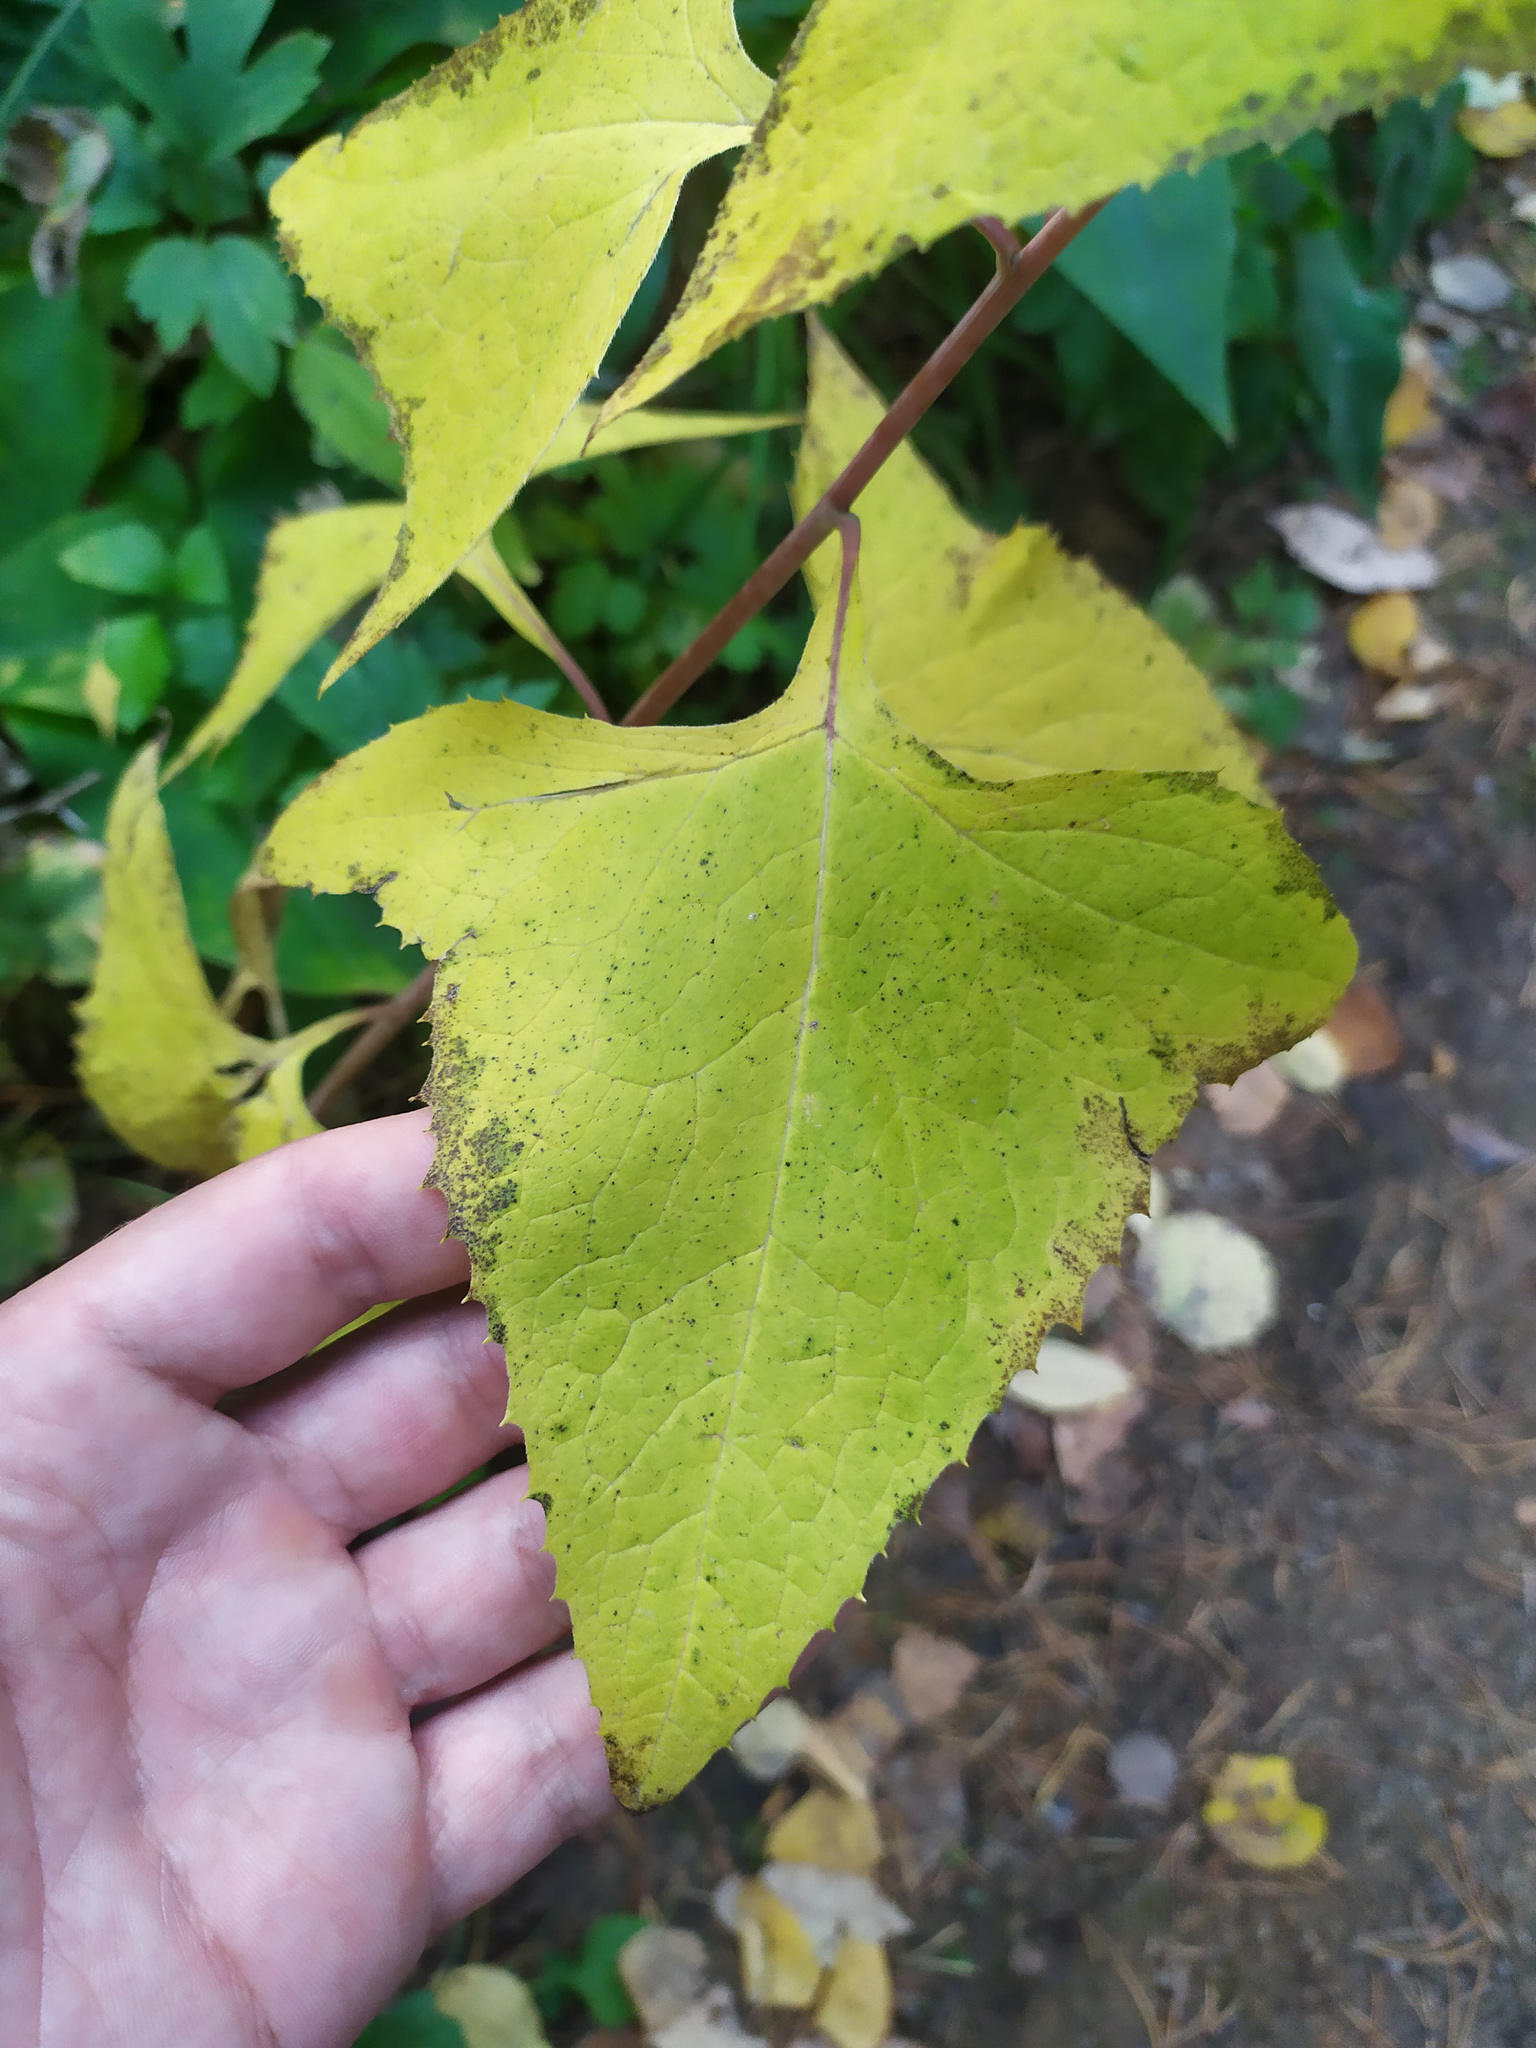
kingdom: Plantae
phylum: Tracheophyta
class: Magnoliopsida
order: Asterales
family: Asteraceae
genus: Parasenecio
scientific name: Parasenecio hastatus
